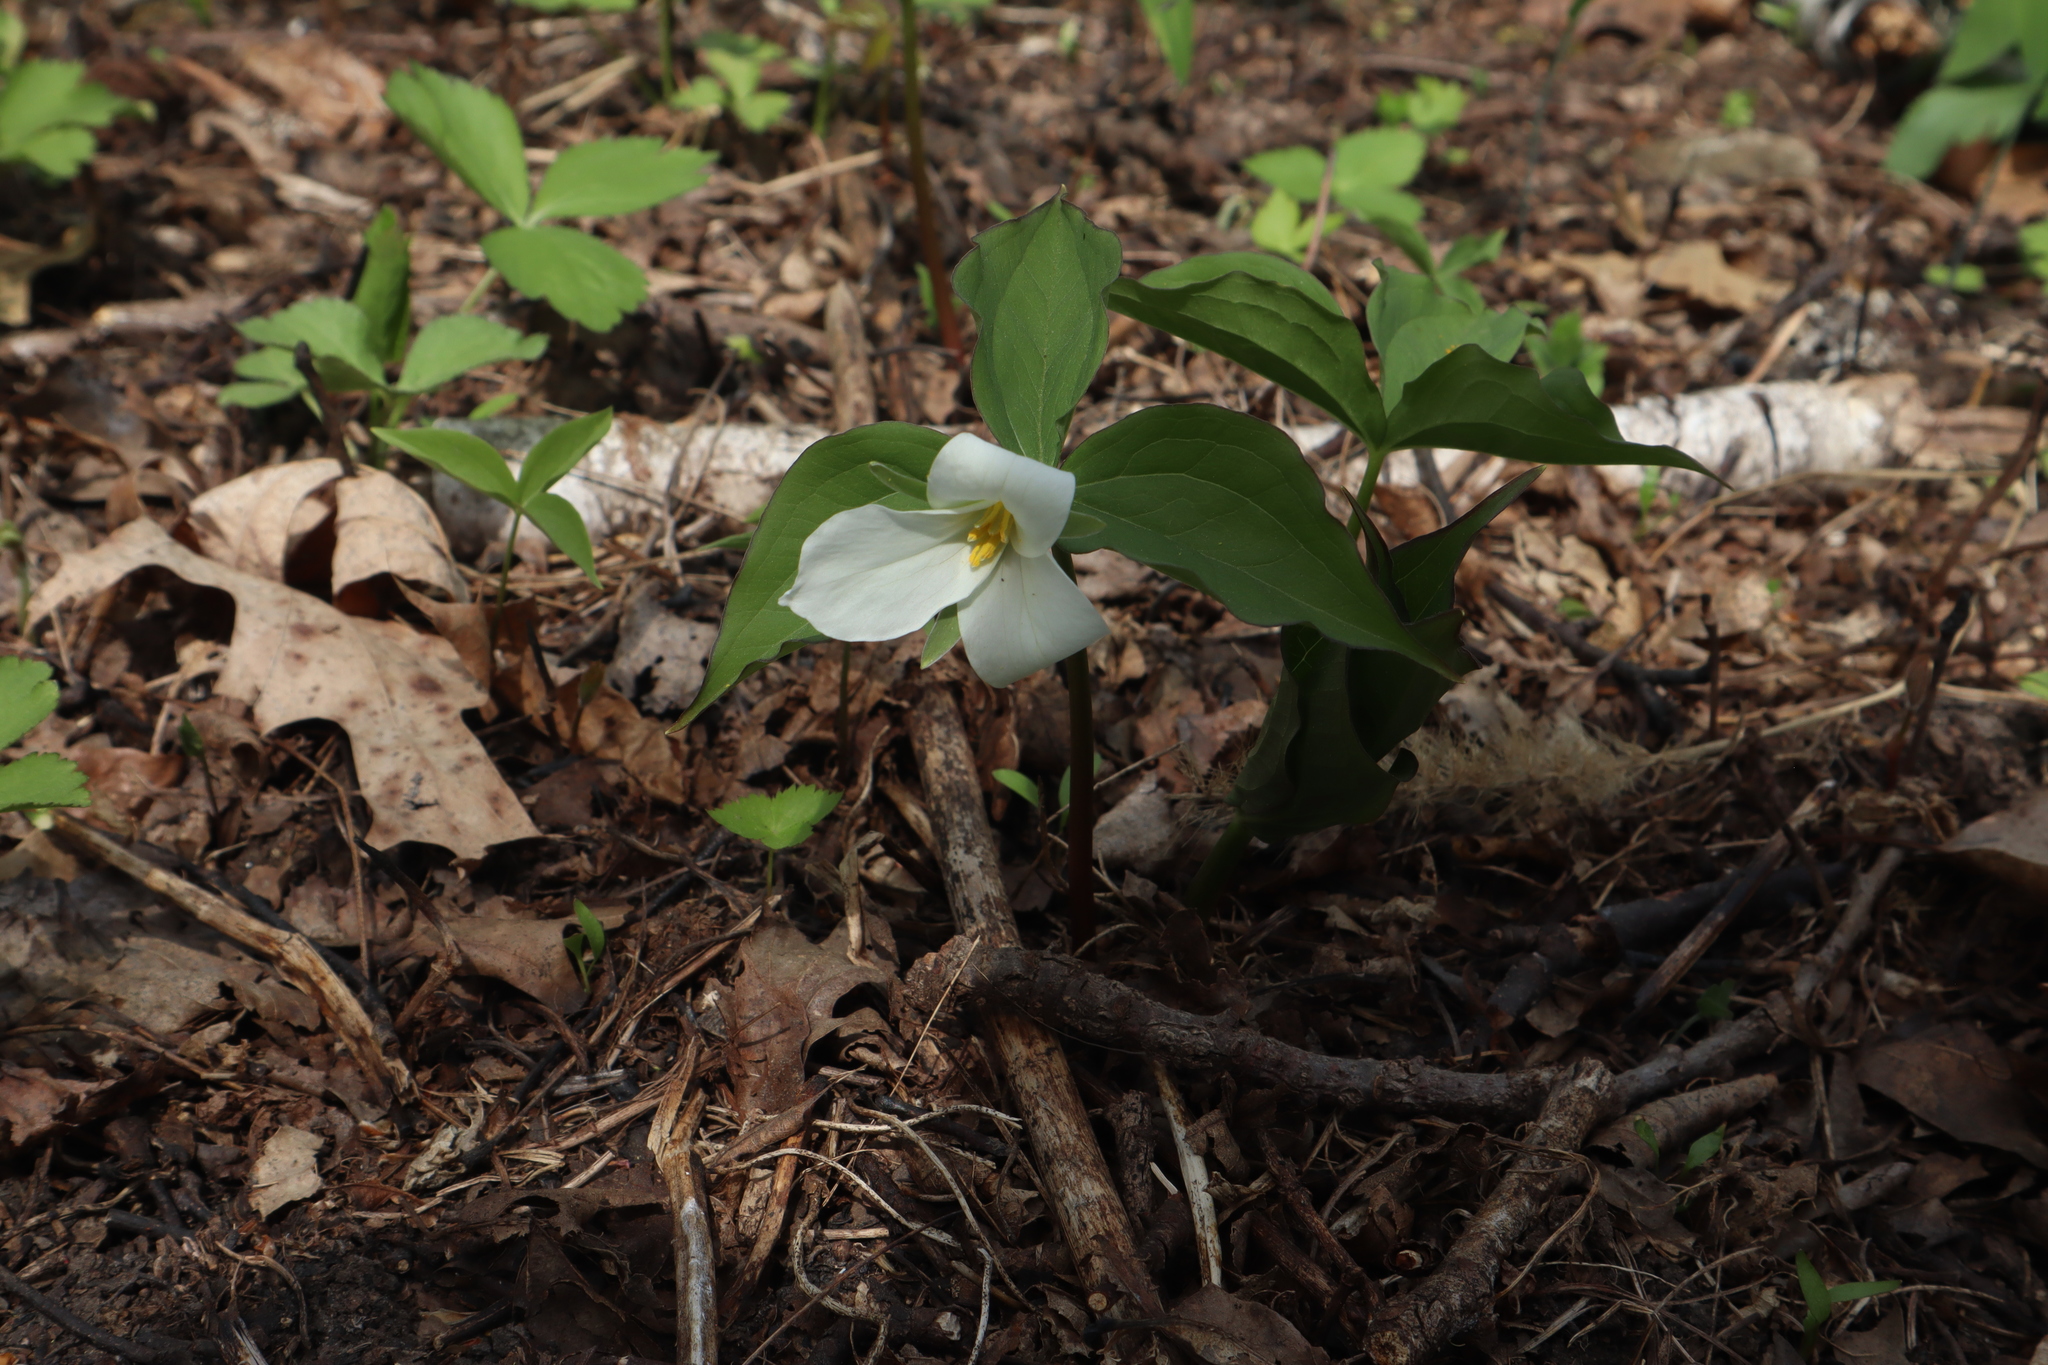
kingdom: Plantae
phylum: Tracheophyta
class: Liliopsida
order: Liliales
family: Melanthiaceae
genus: Trillium
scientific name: Trillium grandiflorum
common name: Great white trillium
